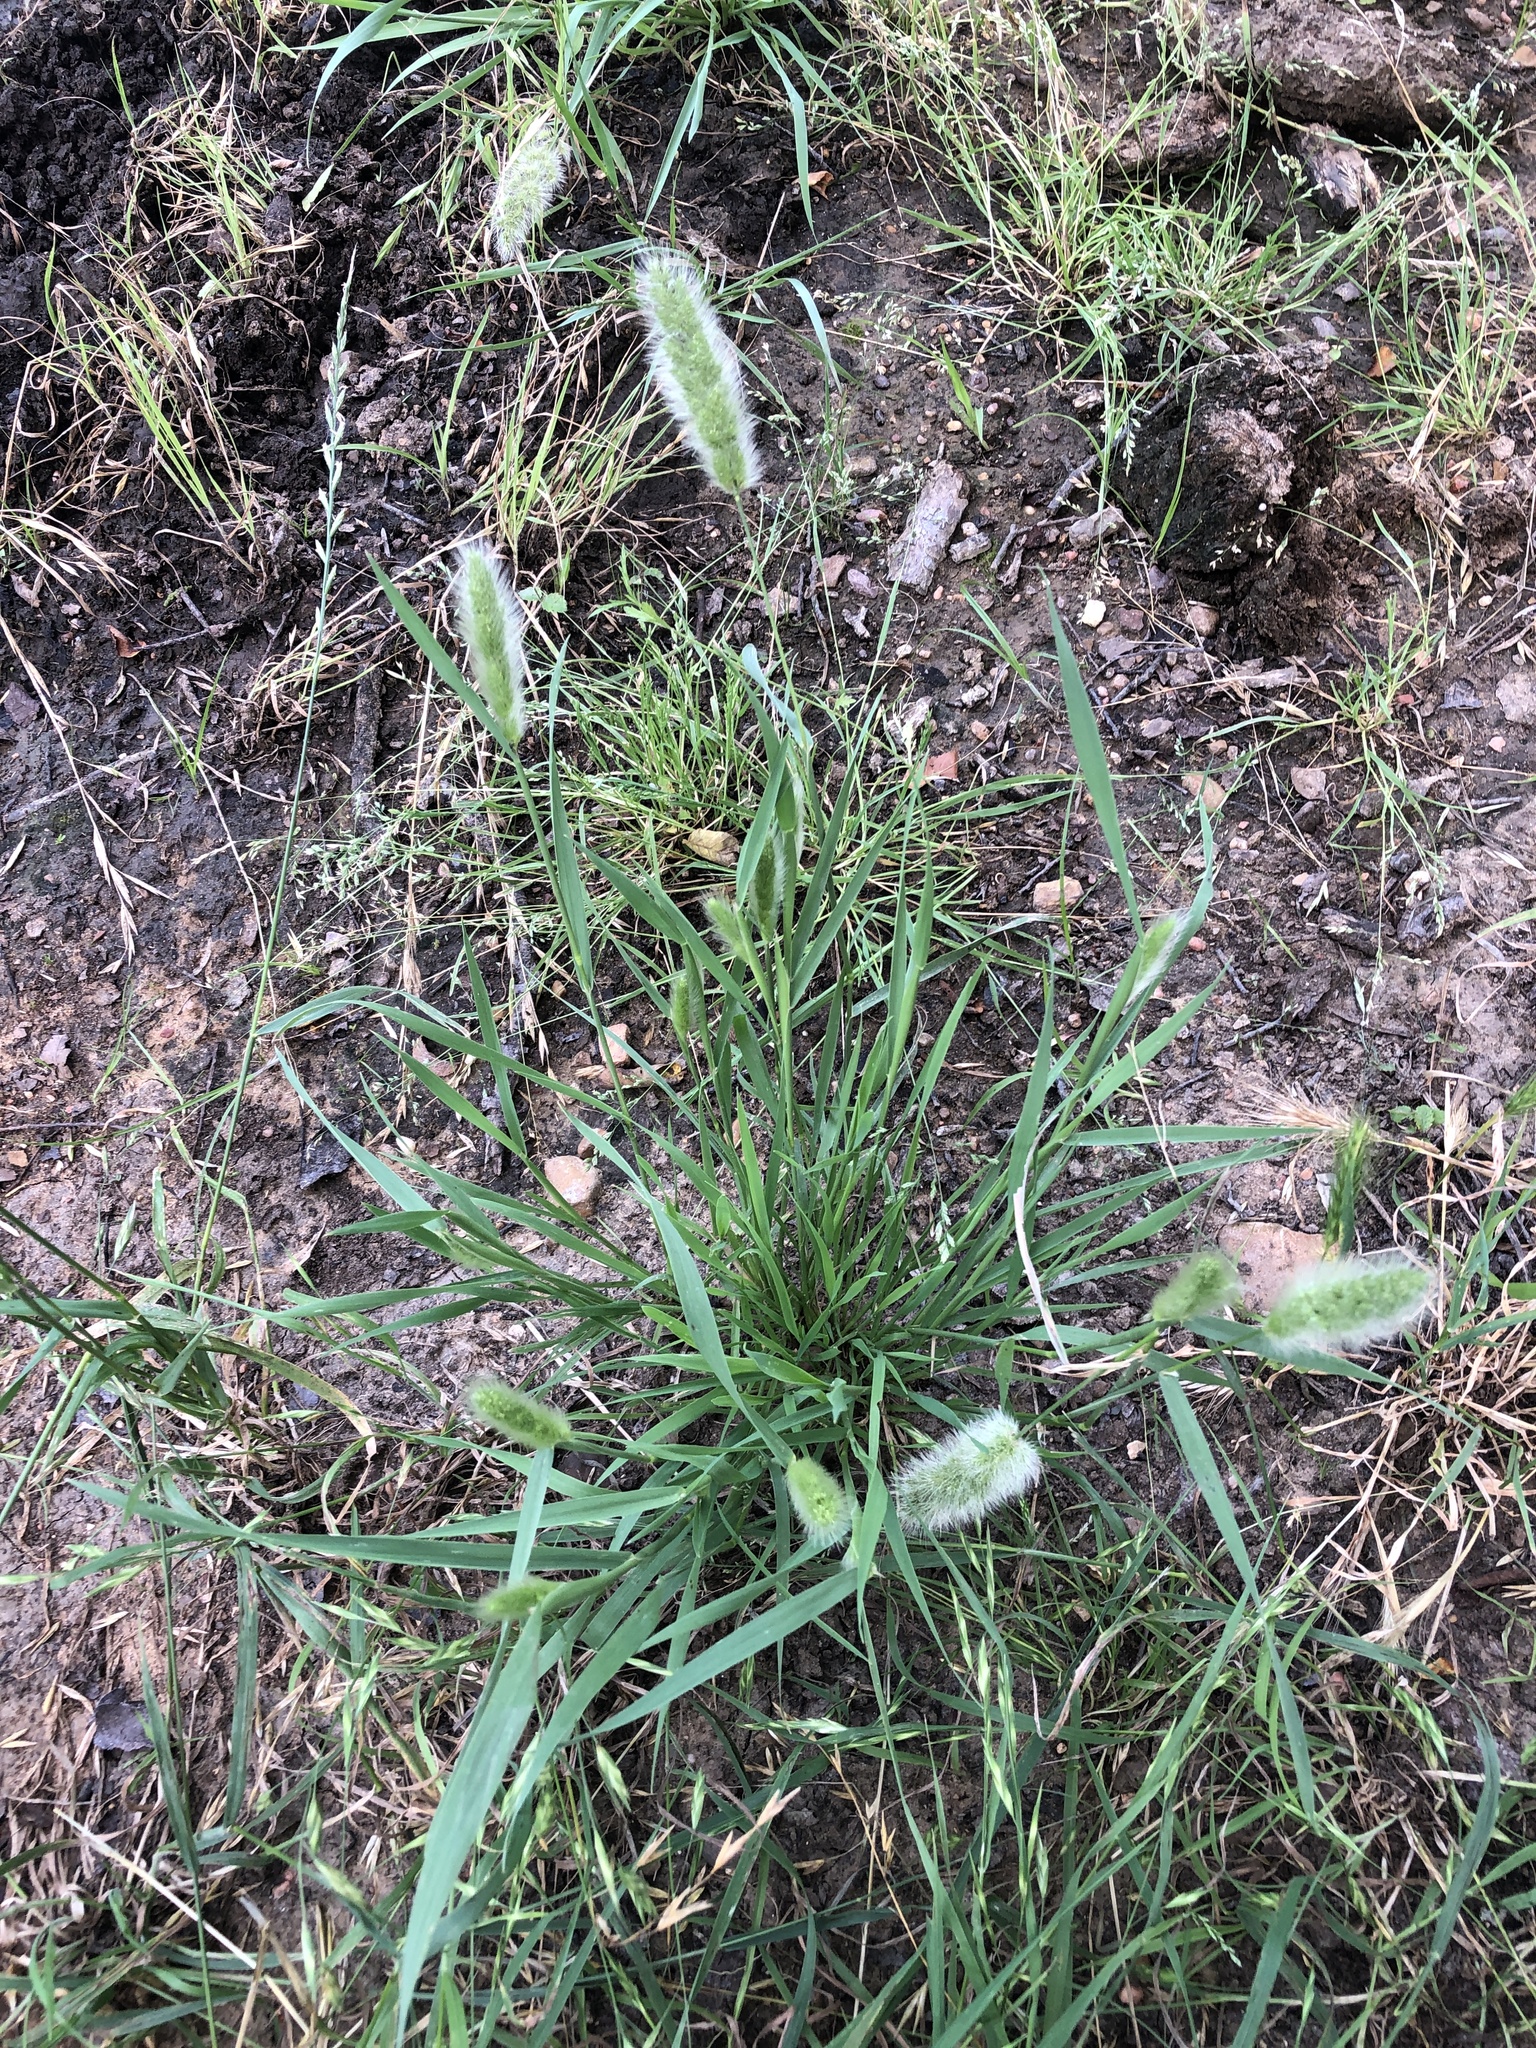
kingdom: Plantae
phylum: Tracheophyta
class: Liliopsida
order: Poales
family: Poaceae
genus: Polypogon
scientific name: Polypogon monspeliensis
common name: Annual rabbitsfoot grass
